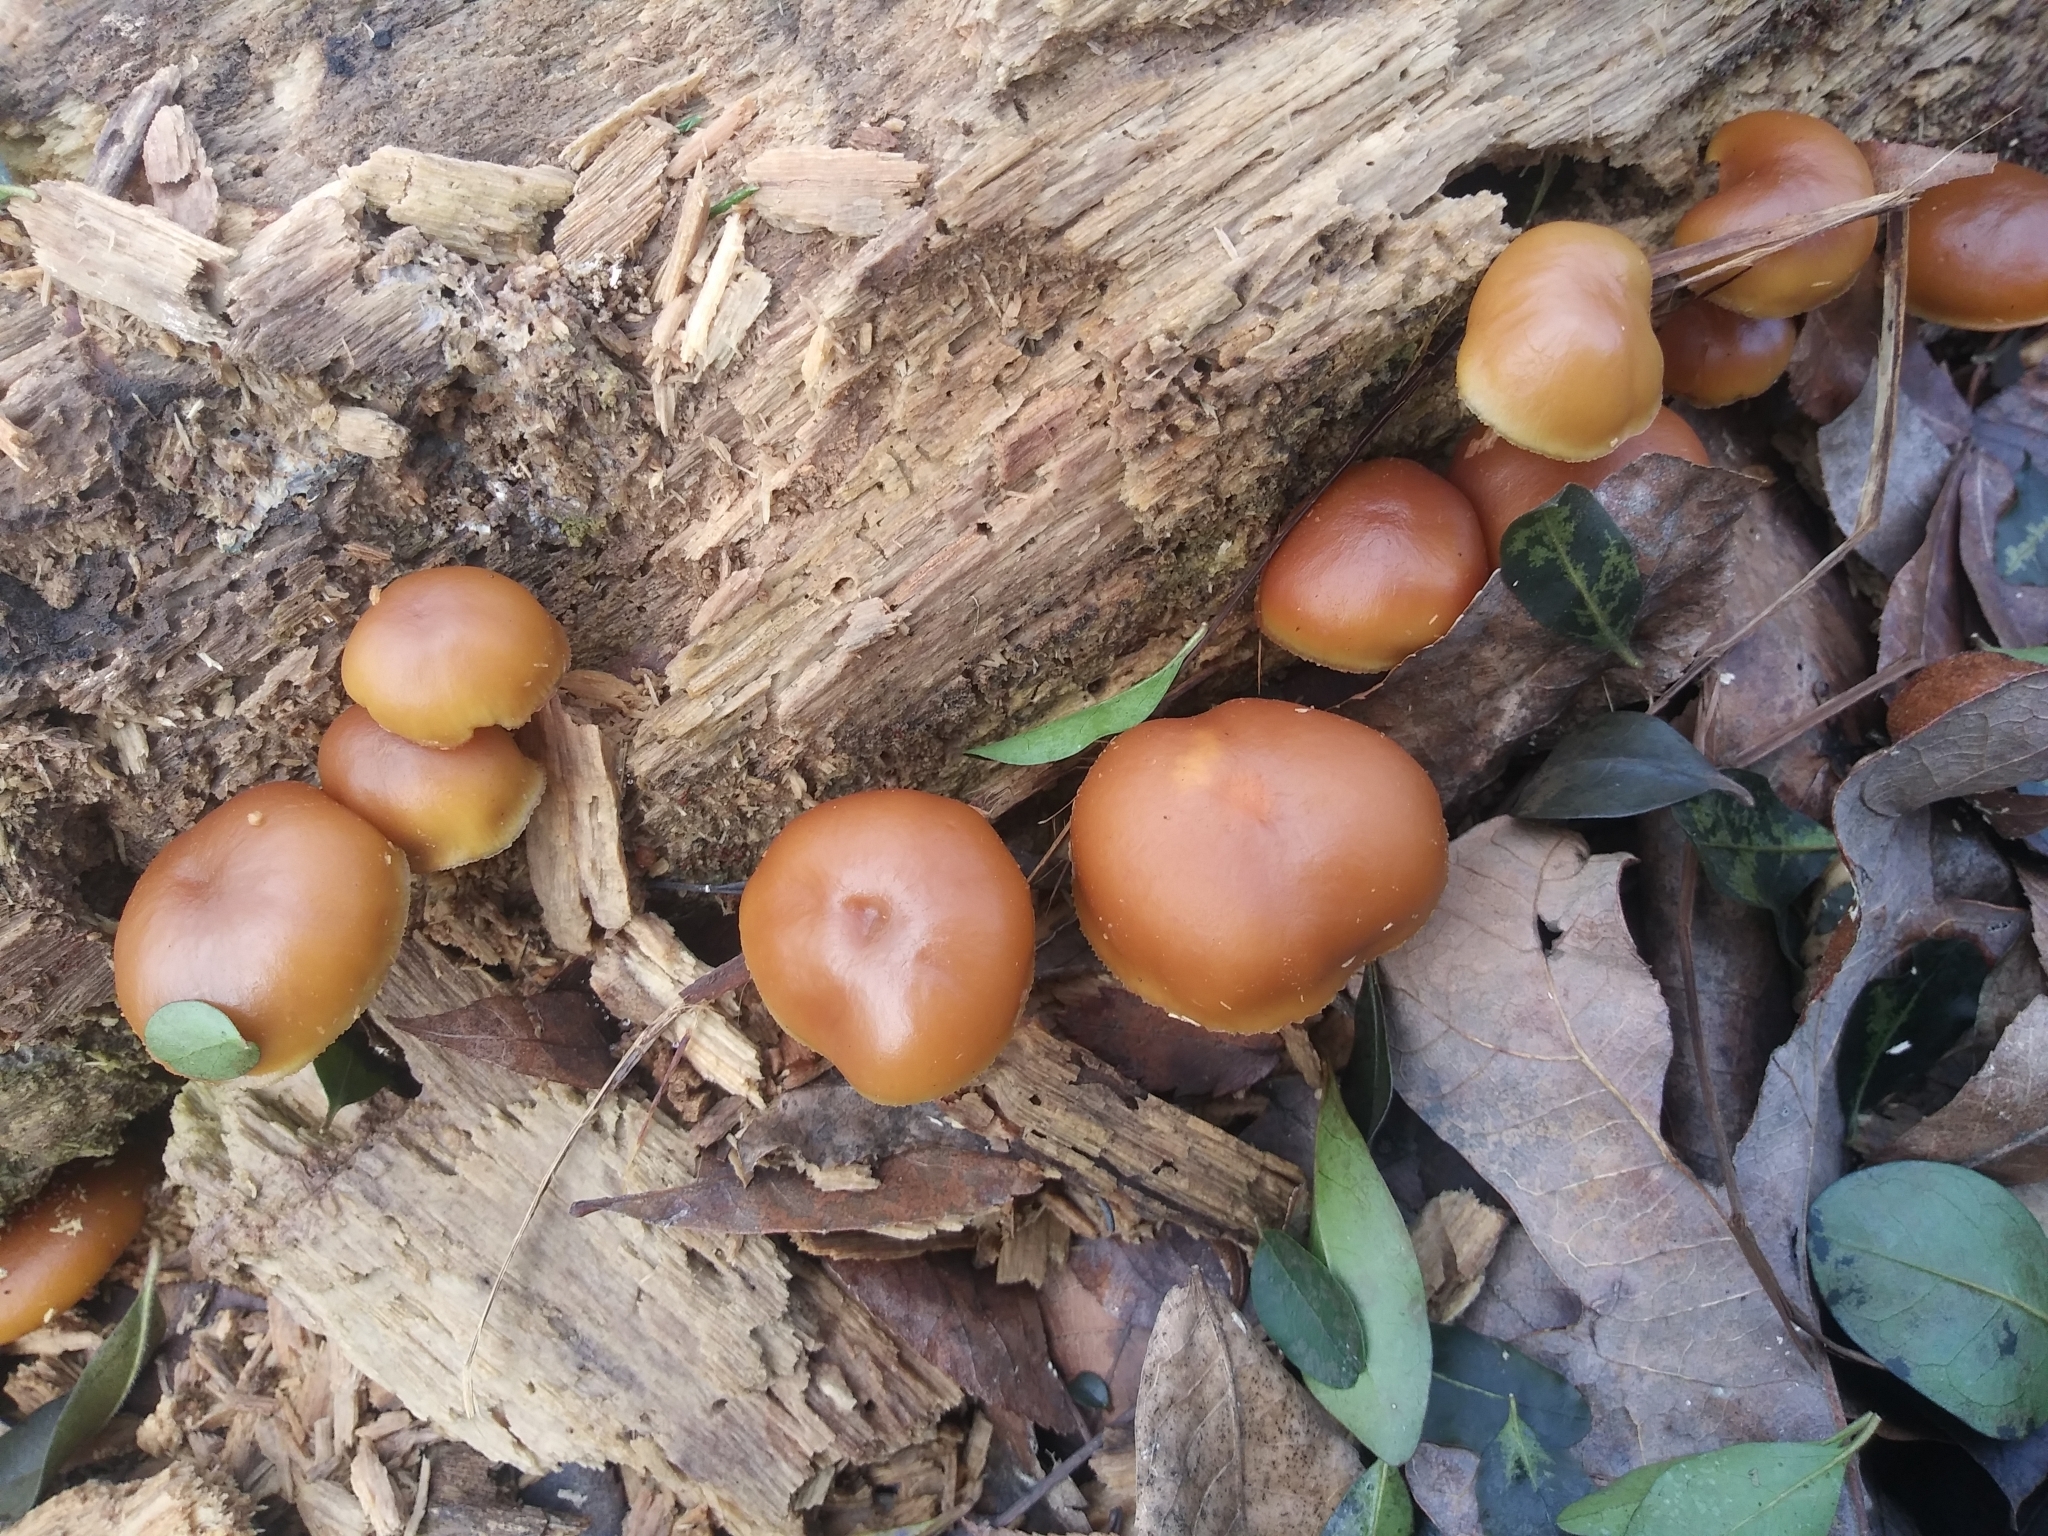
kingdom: Fungi
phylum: Basidiomycota
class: Agaricomycetes
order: Agaricales
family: Hymenogastraceae
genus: Galerina
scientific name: Galerina marginata
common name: Funeral bell
